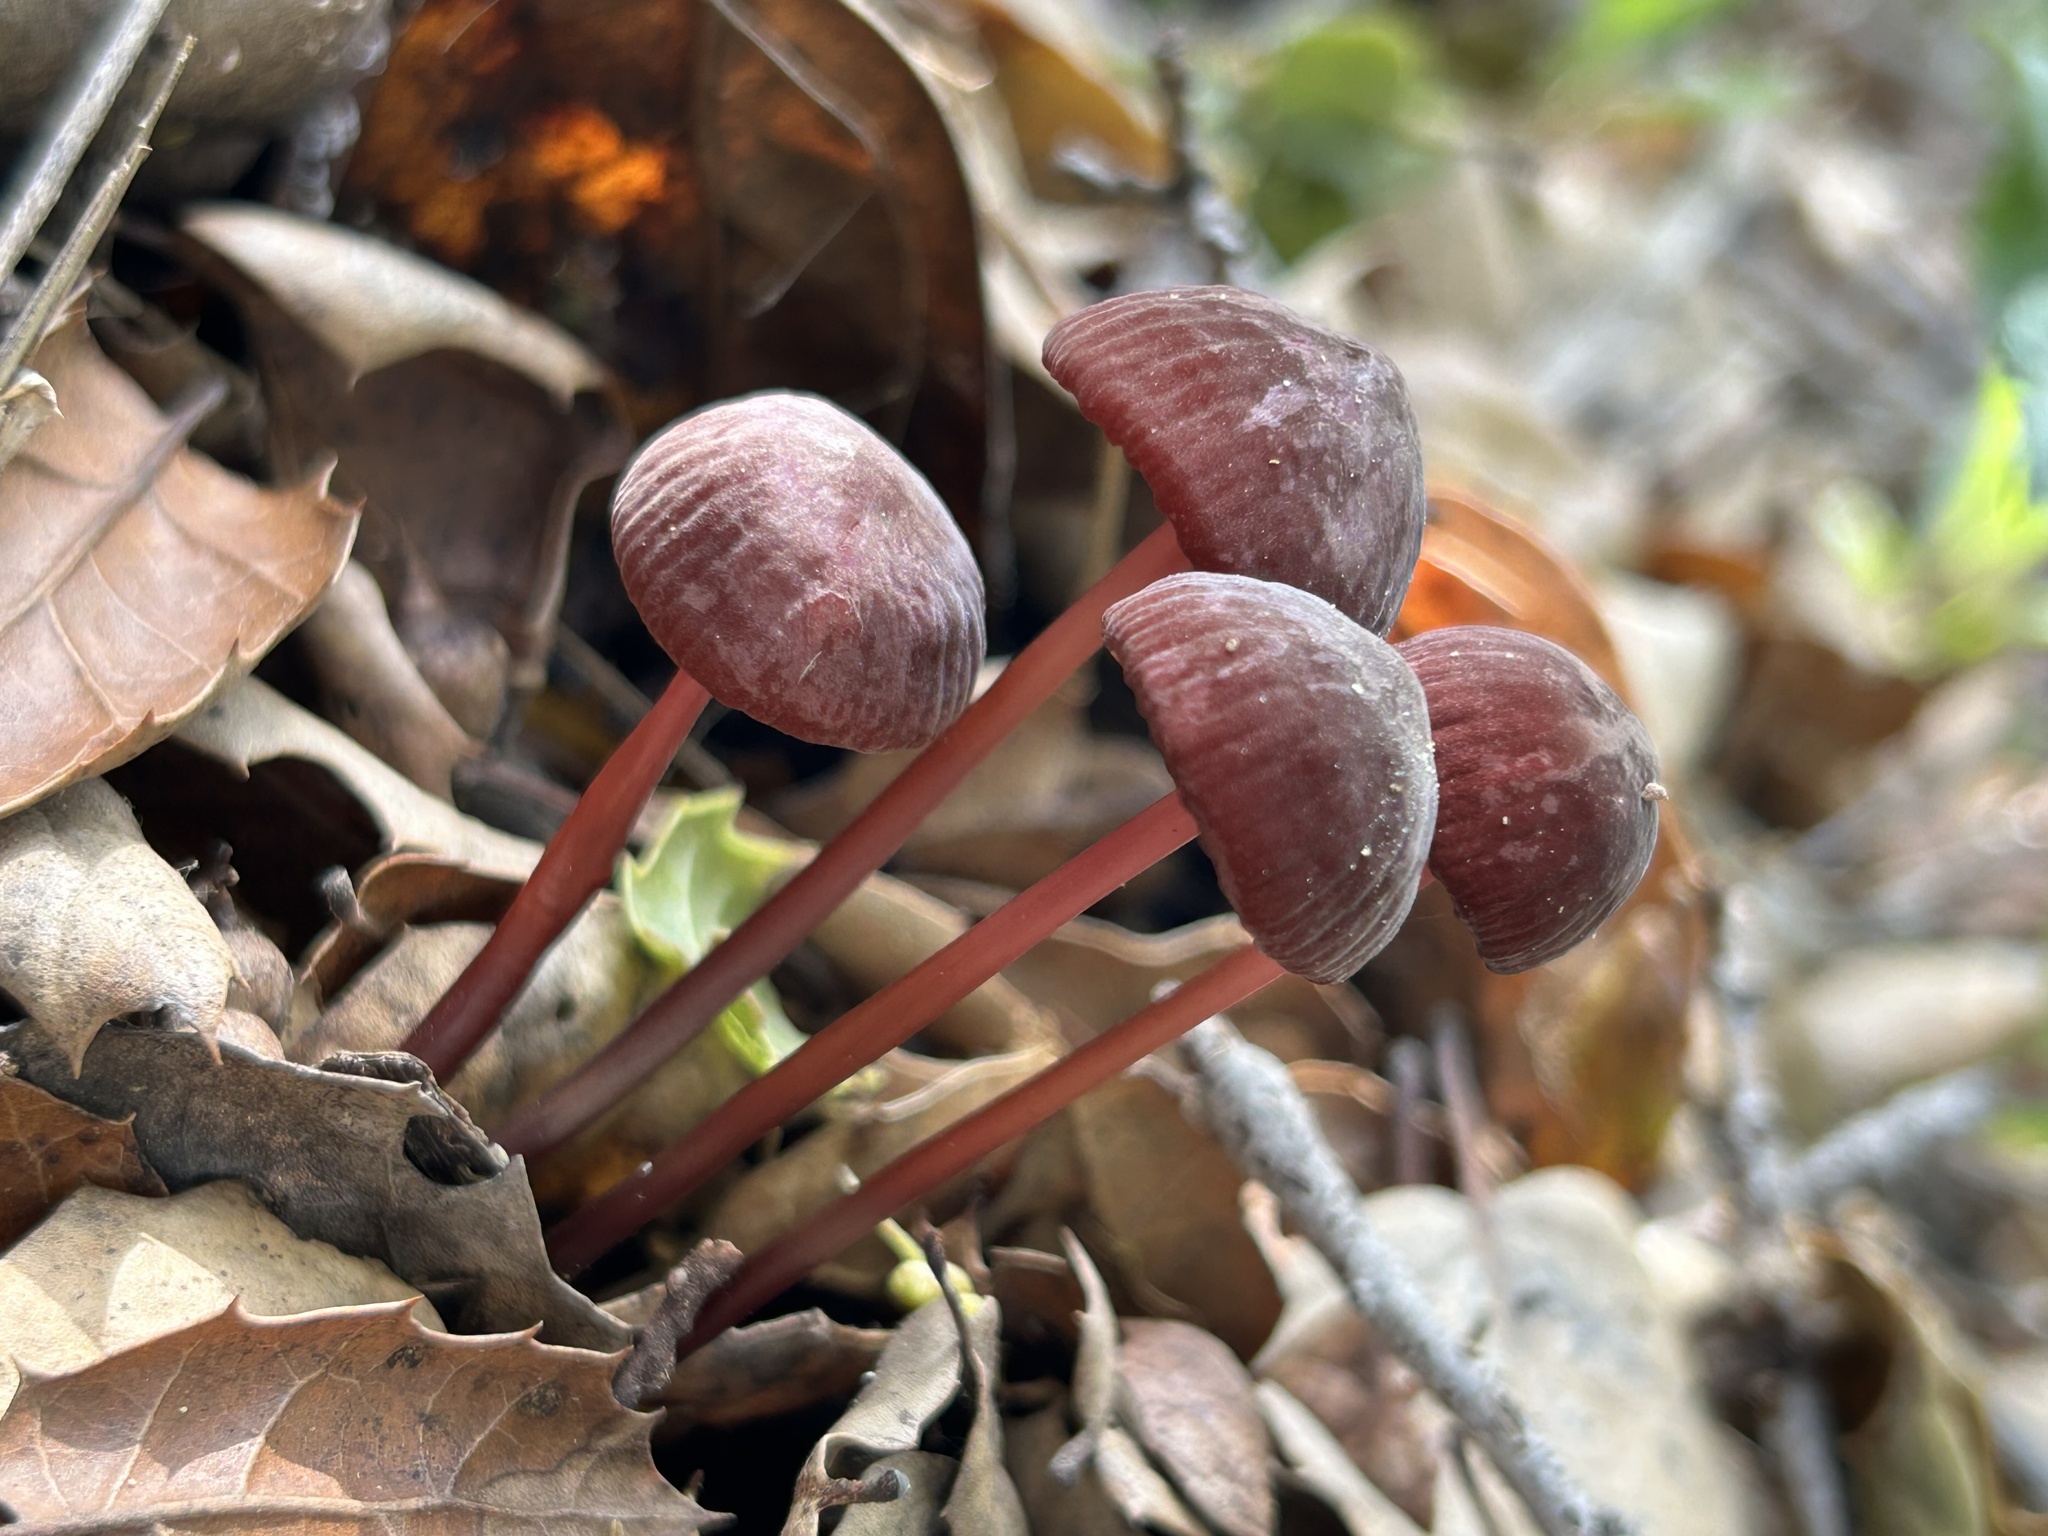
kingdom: Fungi
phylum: Basidiomycota
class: Agaricomycetes
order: Agaricales
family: Marasmiaceae
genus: Marasmius
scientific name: Marasmius plicatulus
